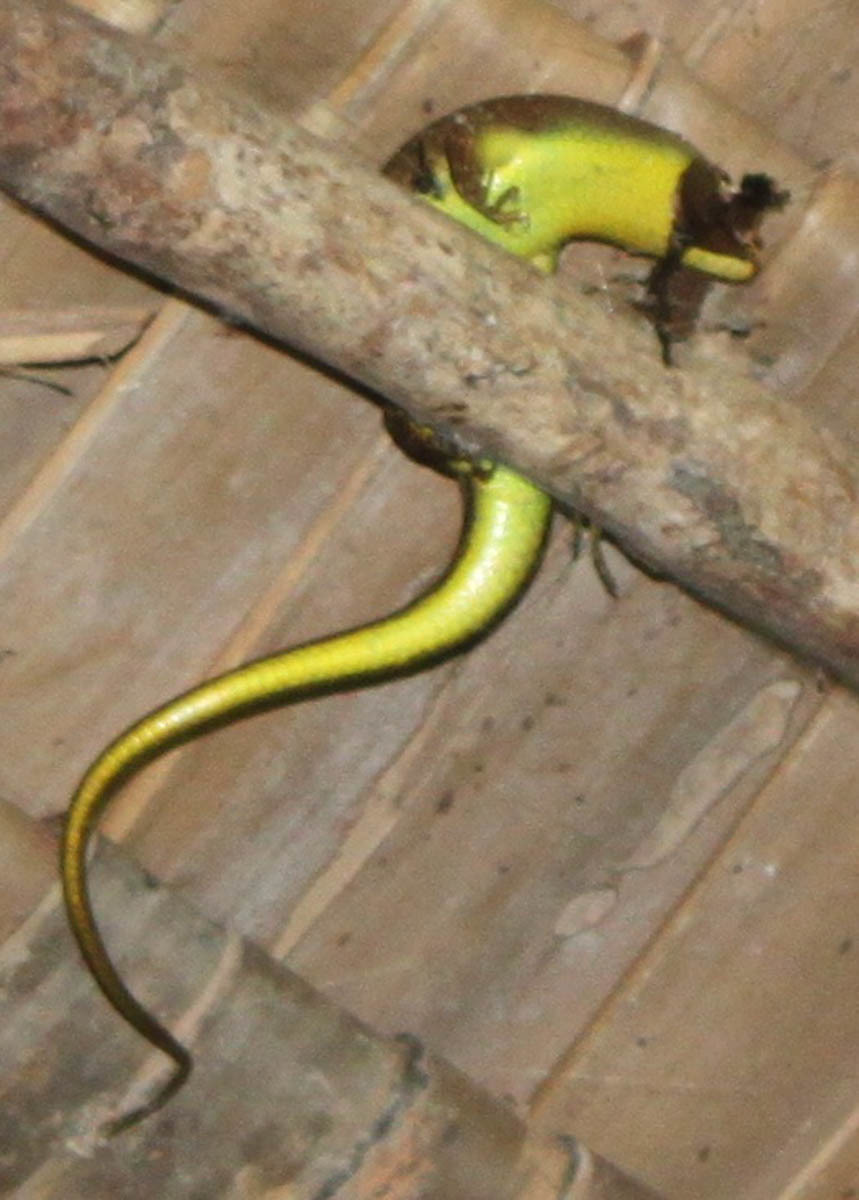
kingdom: Animalia
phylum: Chordata
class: Squamata
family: Scincidae
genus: Dasia
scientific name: Dasia olivacea
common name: Olive dasia
